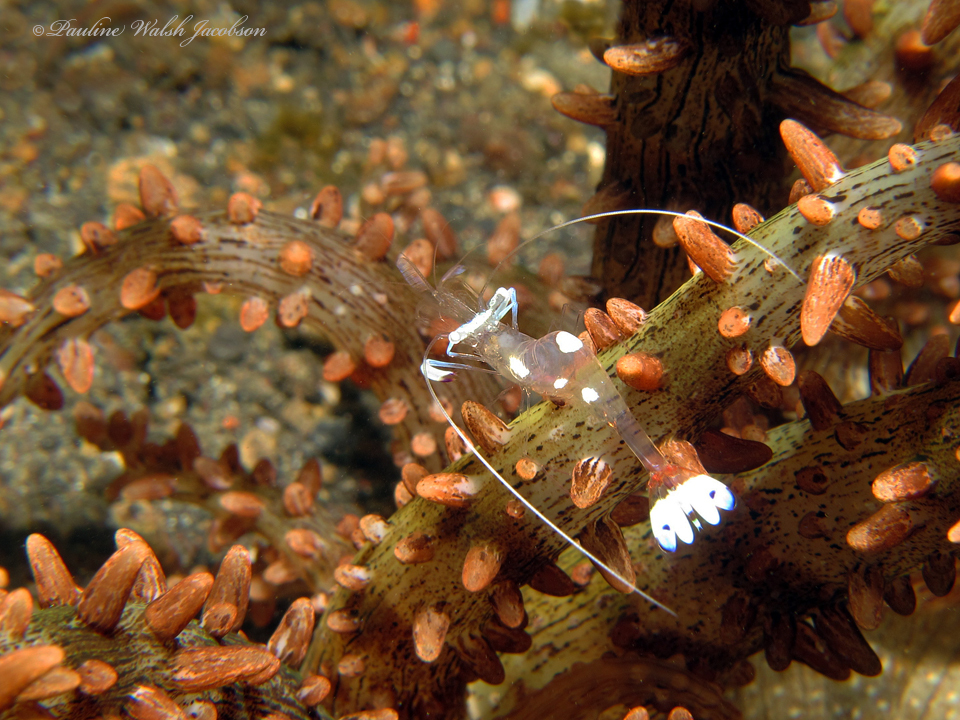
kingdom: Animalia
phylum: Arthropoda
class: Malacostraca
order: Decapoda
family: Palaemonidae
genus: Ancylomenes
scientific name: Ancylomenes magnificus
